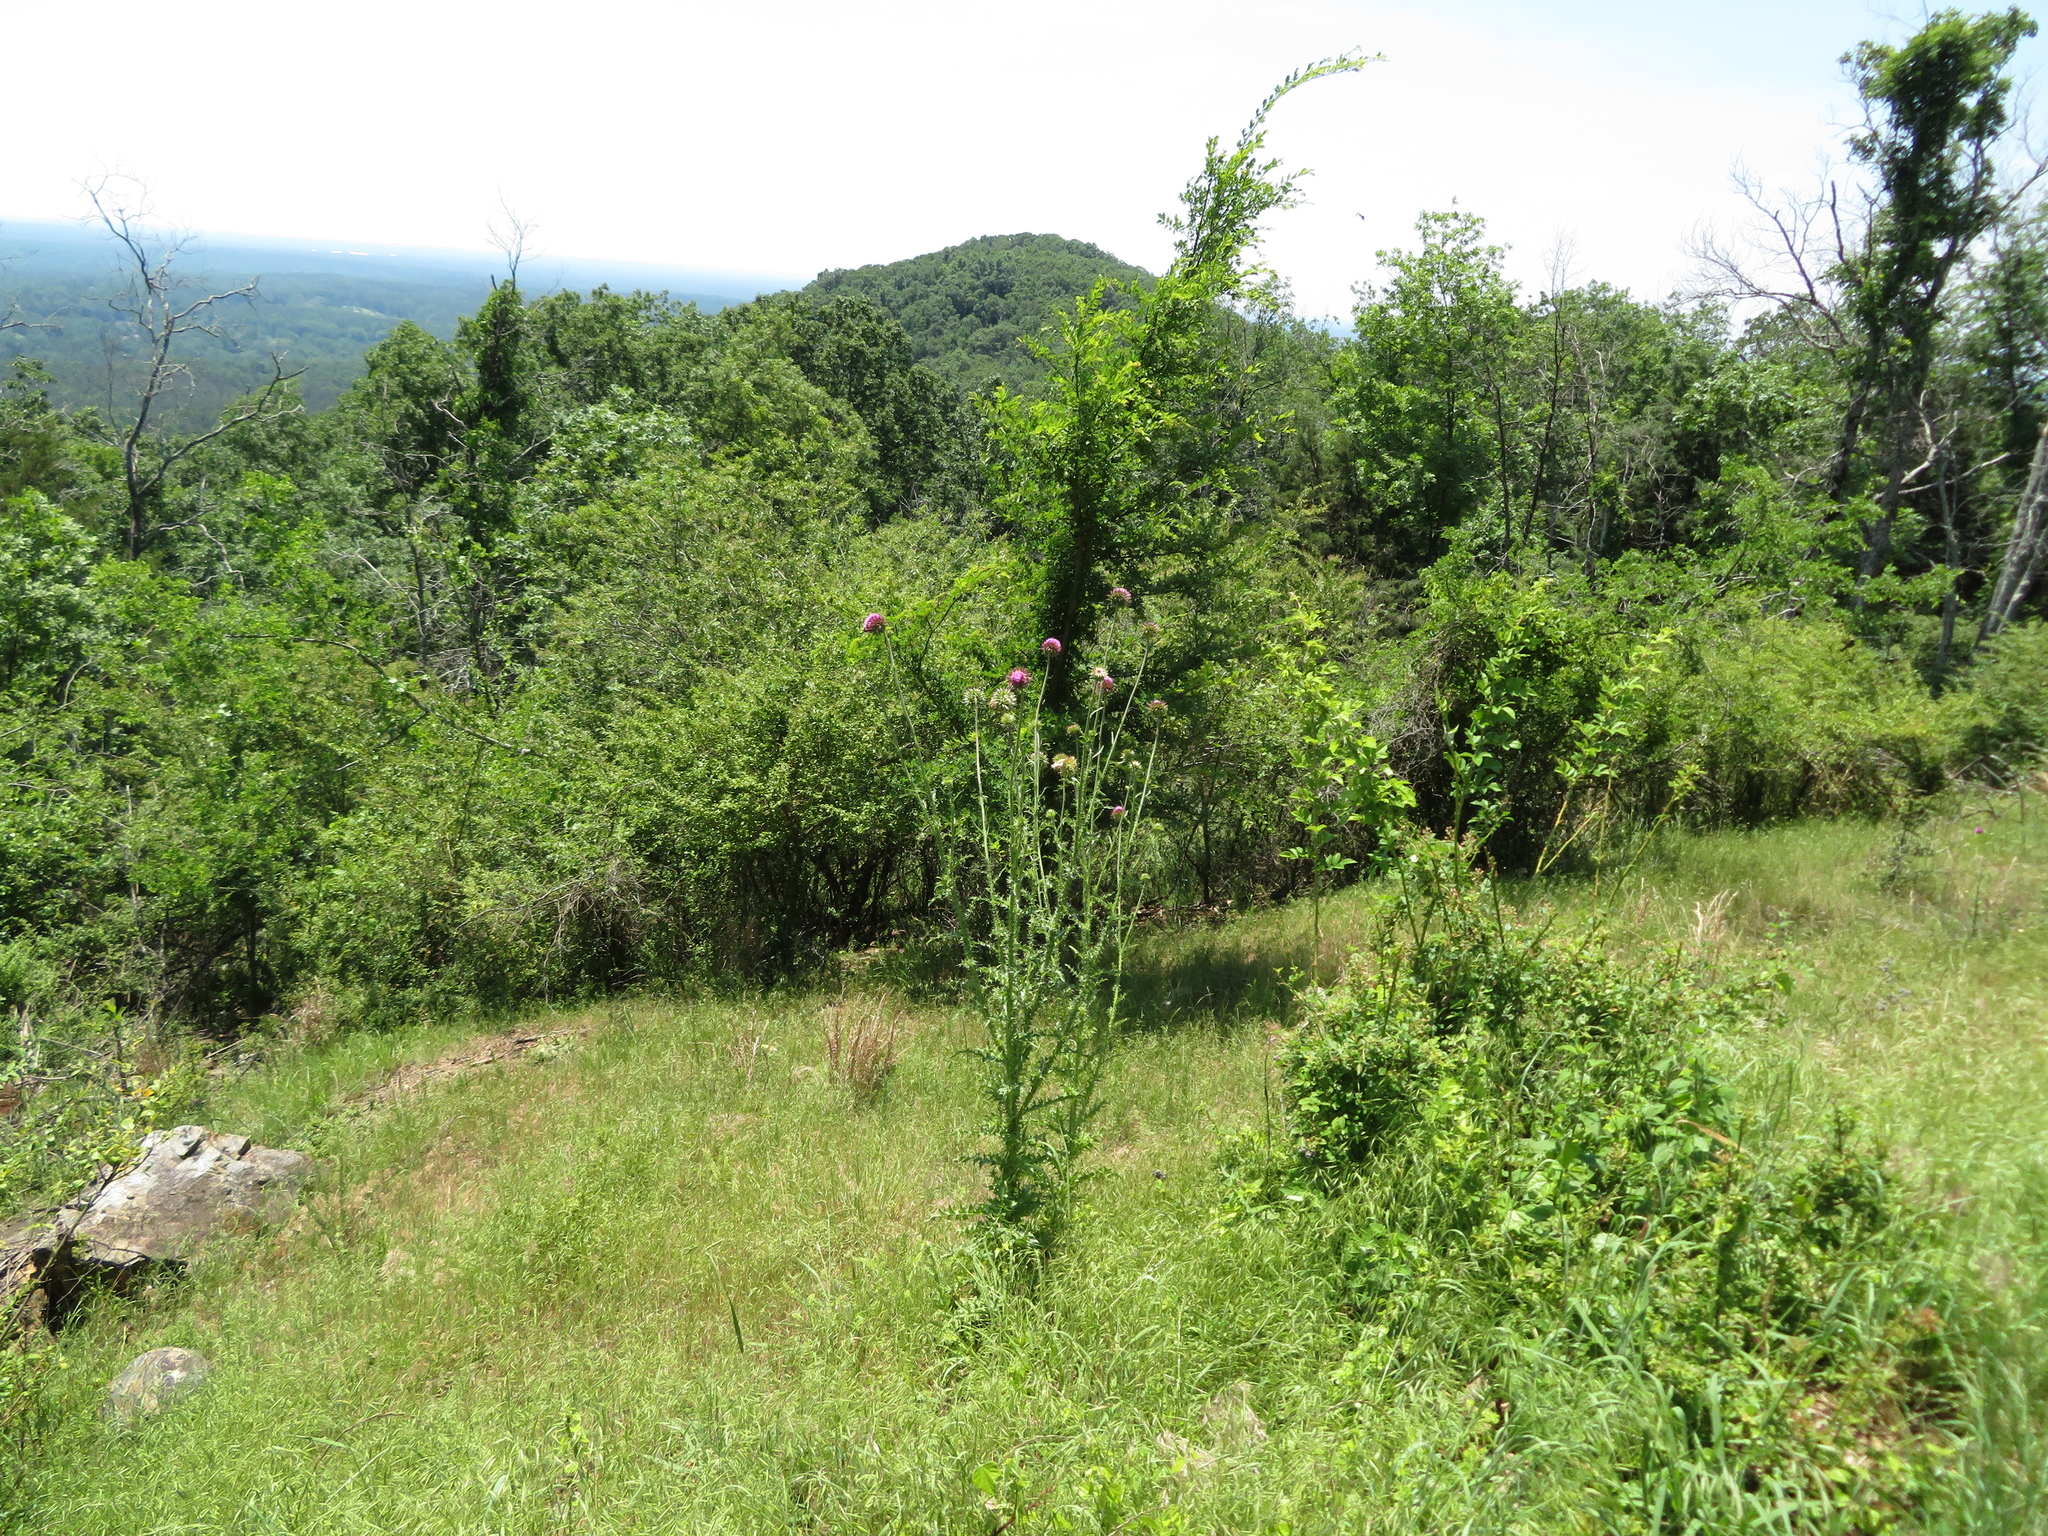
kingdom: Plantae
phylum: Tracheophyta
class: Magnoliopsida
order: Asterales
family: Asteraceae
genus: Carduus
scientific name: Carduus nutans
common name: Musk thistle
